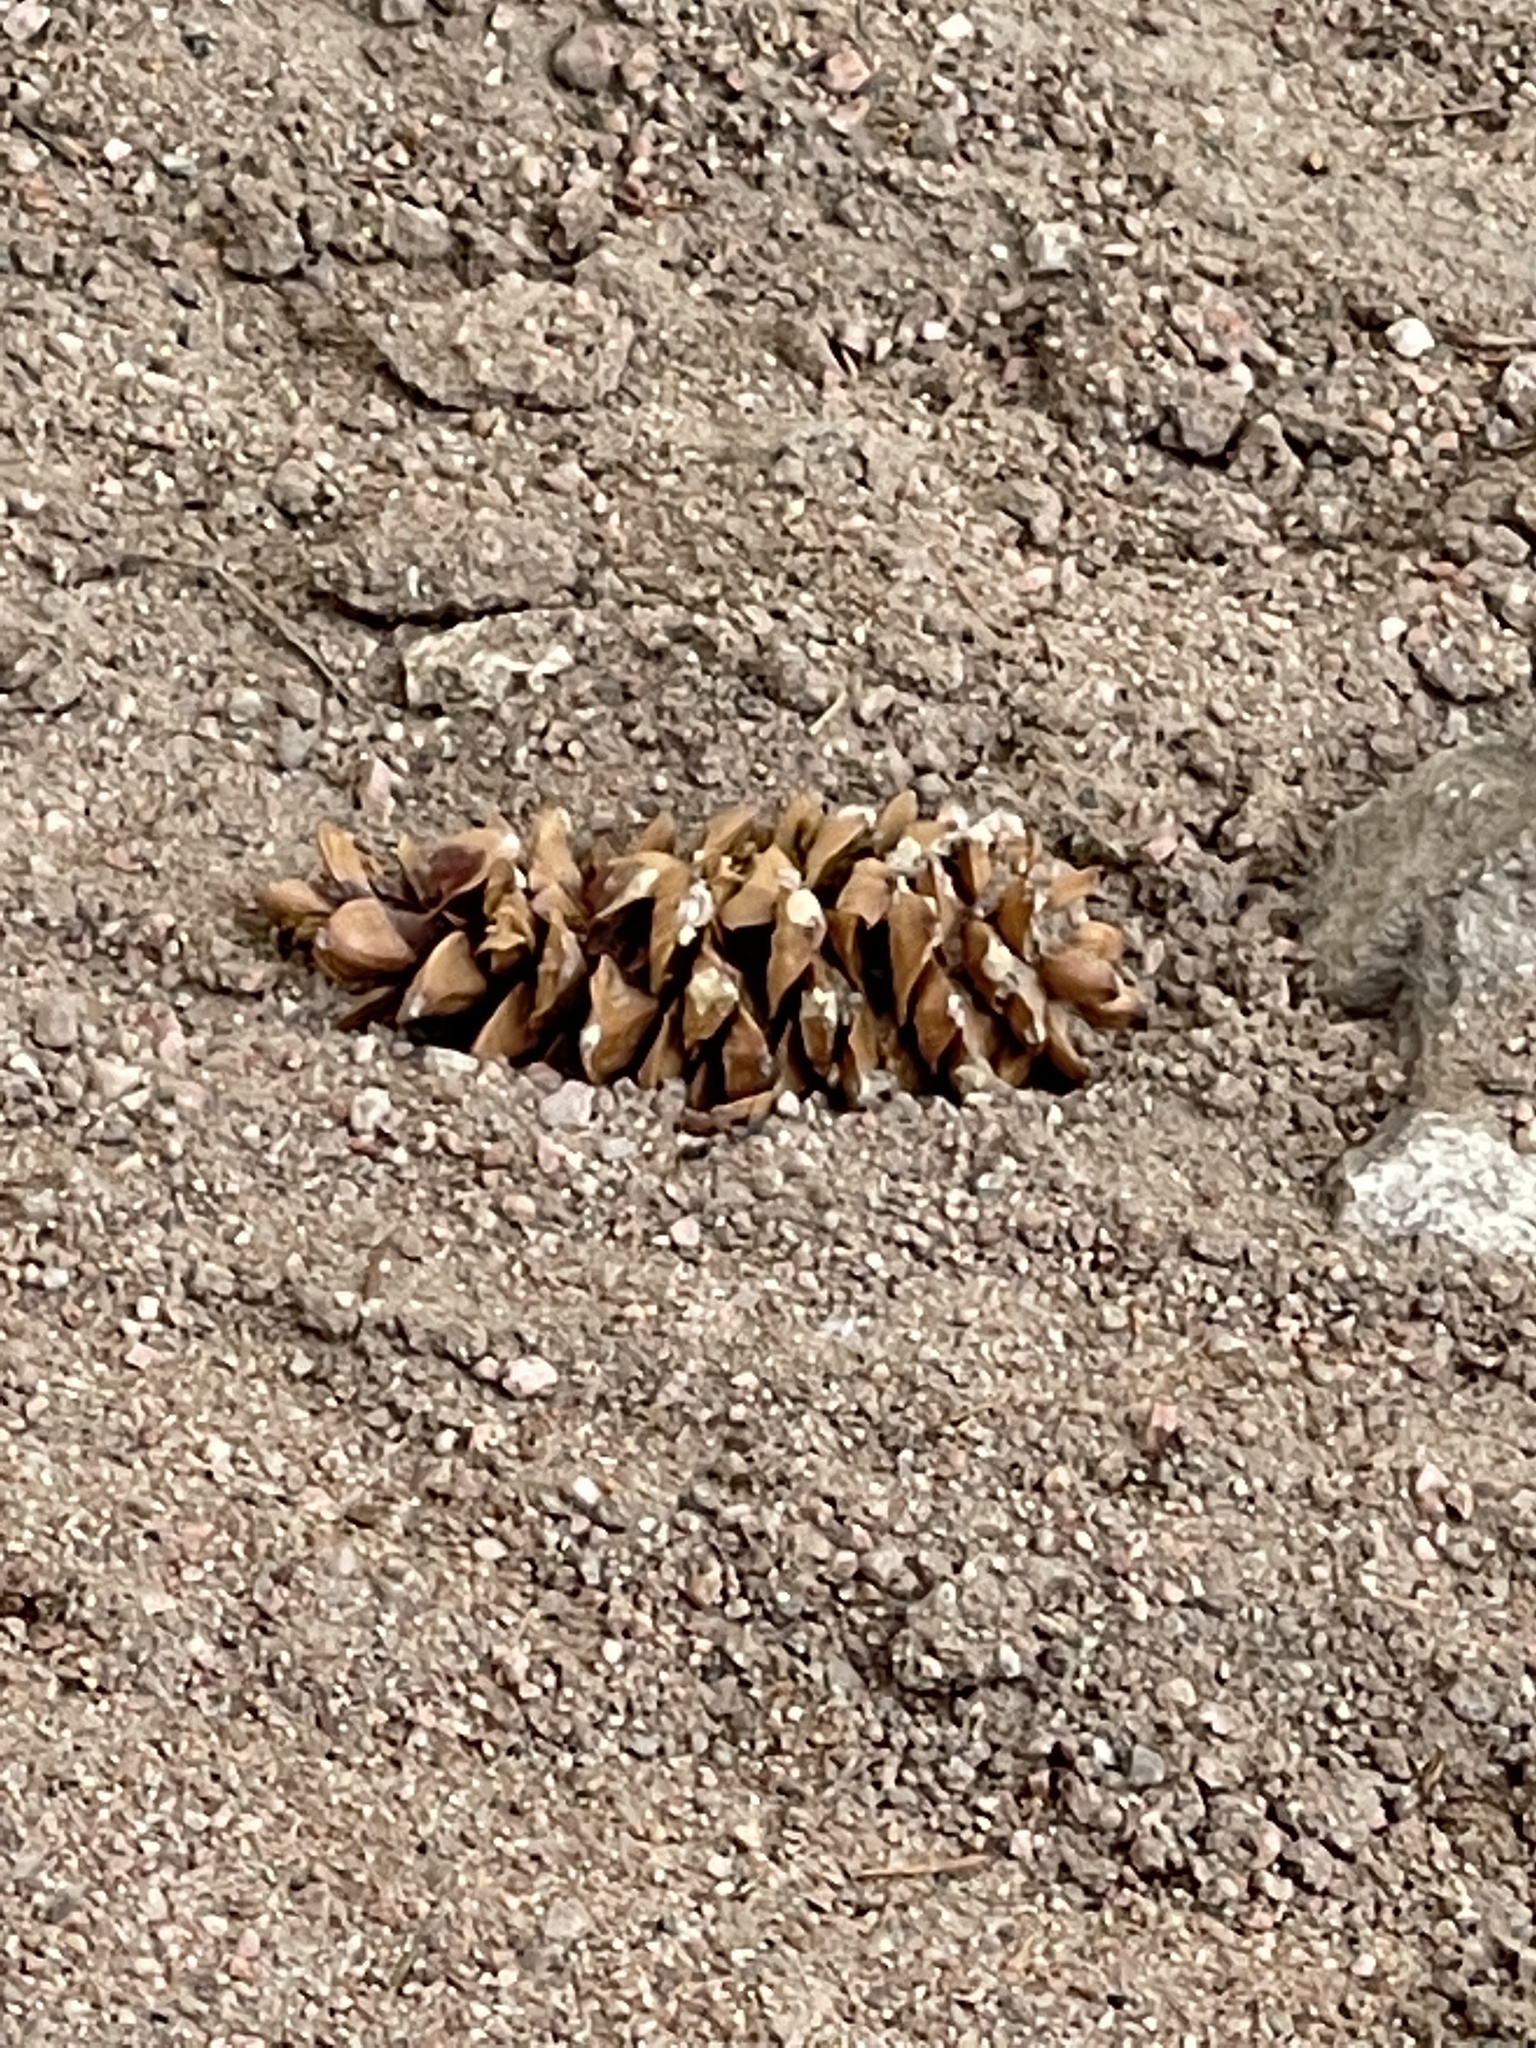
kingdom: Plantae
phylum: Tracheophyta
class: Pinopsida
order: Pinales
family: Pinaceae
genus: Pinus
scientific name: Pinus flexilis
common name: Limber pine
